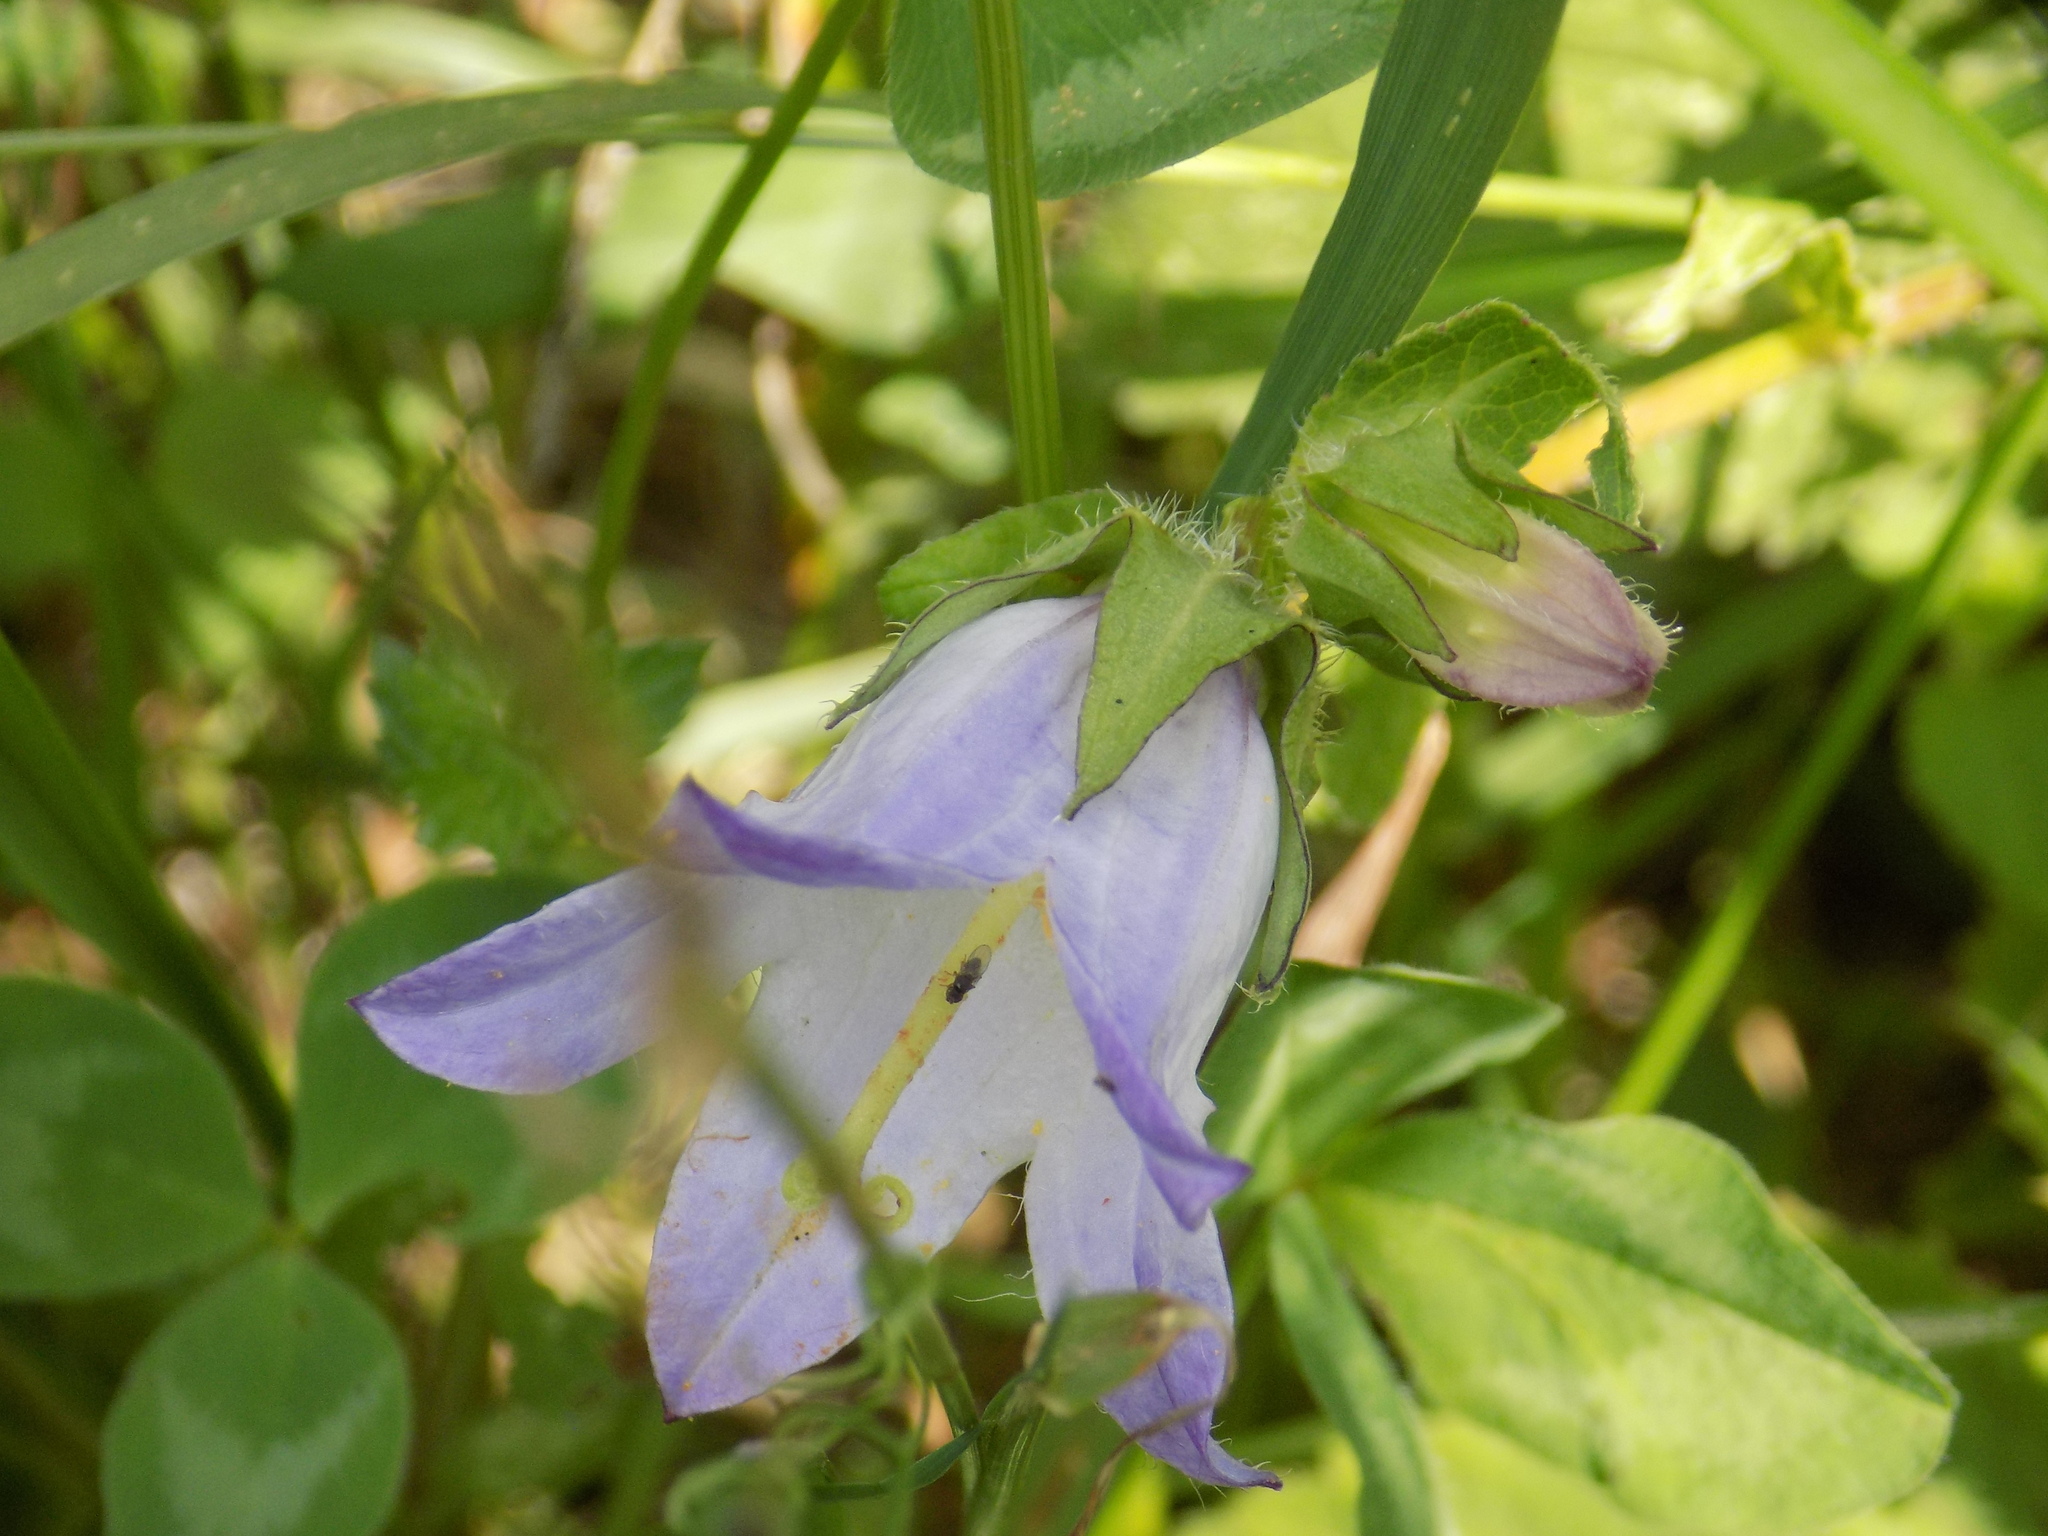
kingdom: Plantae
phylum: Tracheophyta
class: Magnoliopsida
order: Asterales
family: Campanulaceae
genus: Campanula
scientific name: Campanula trachelium
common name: Nettle-leaved bellflower
